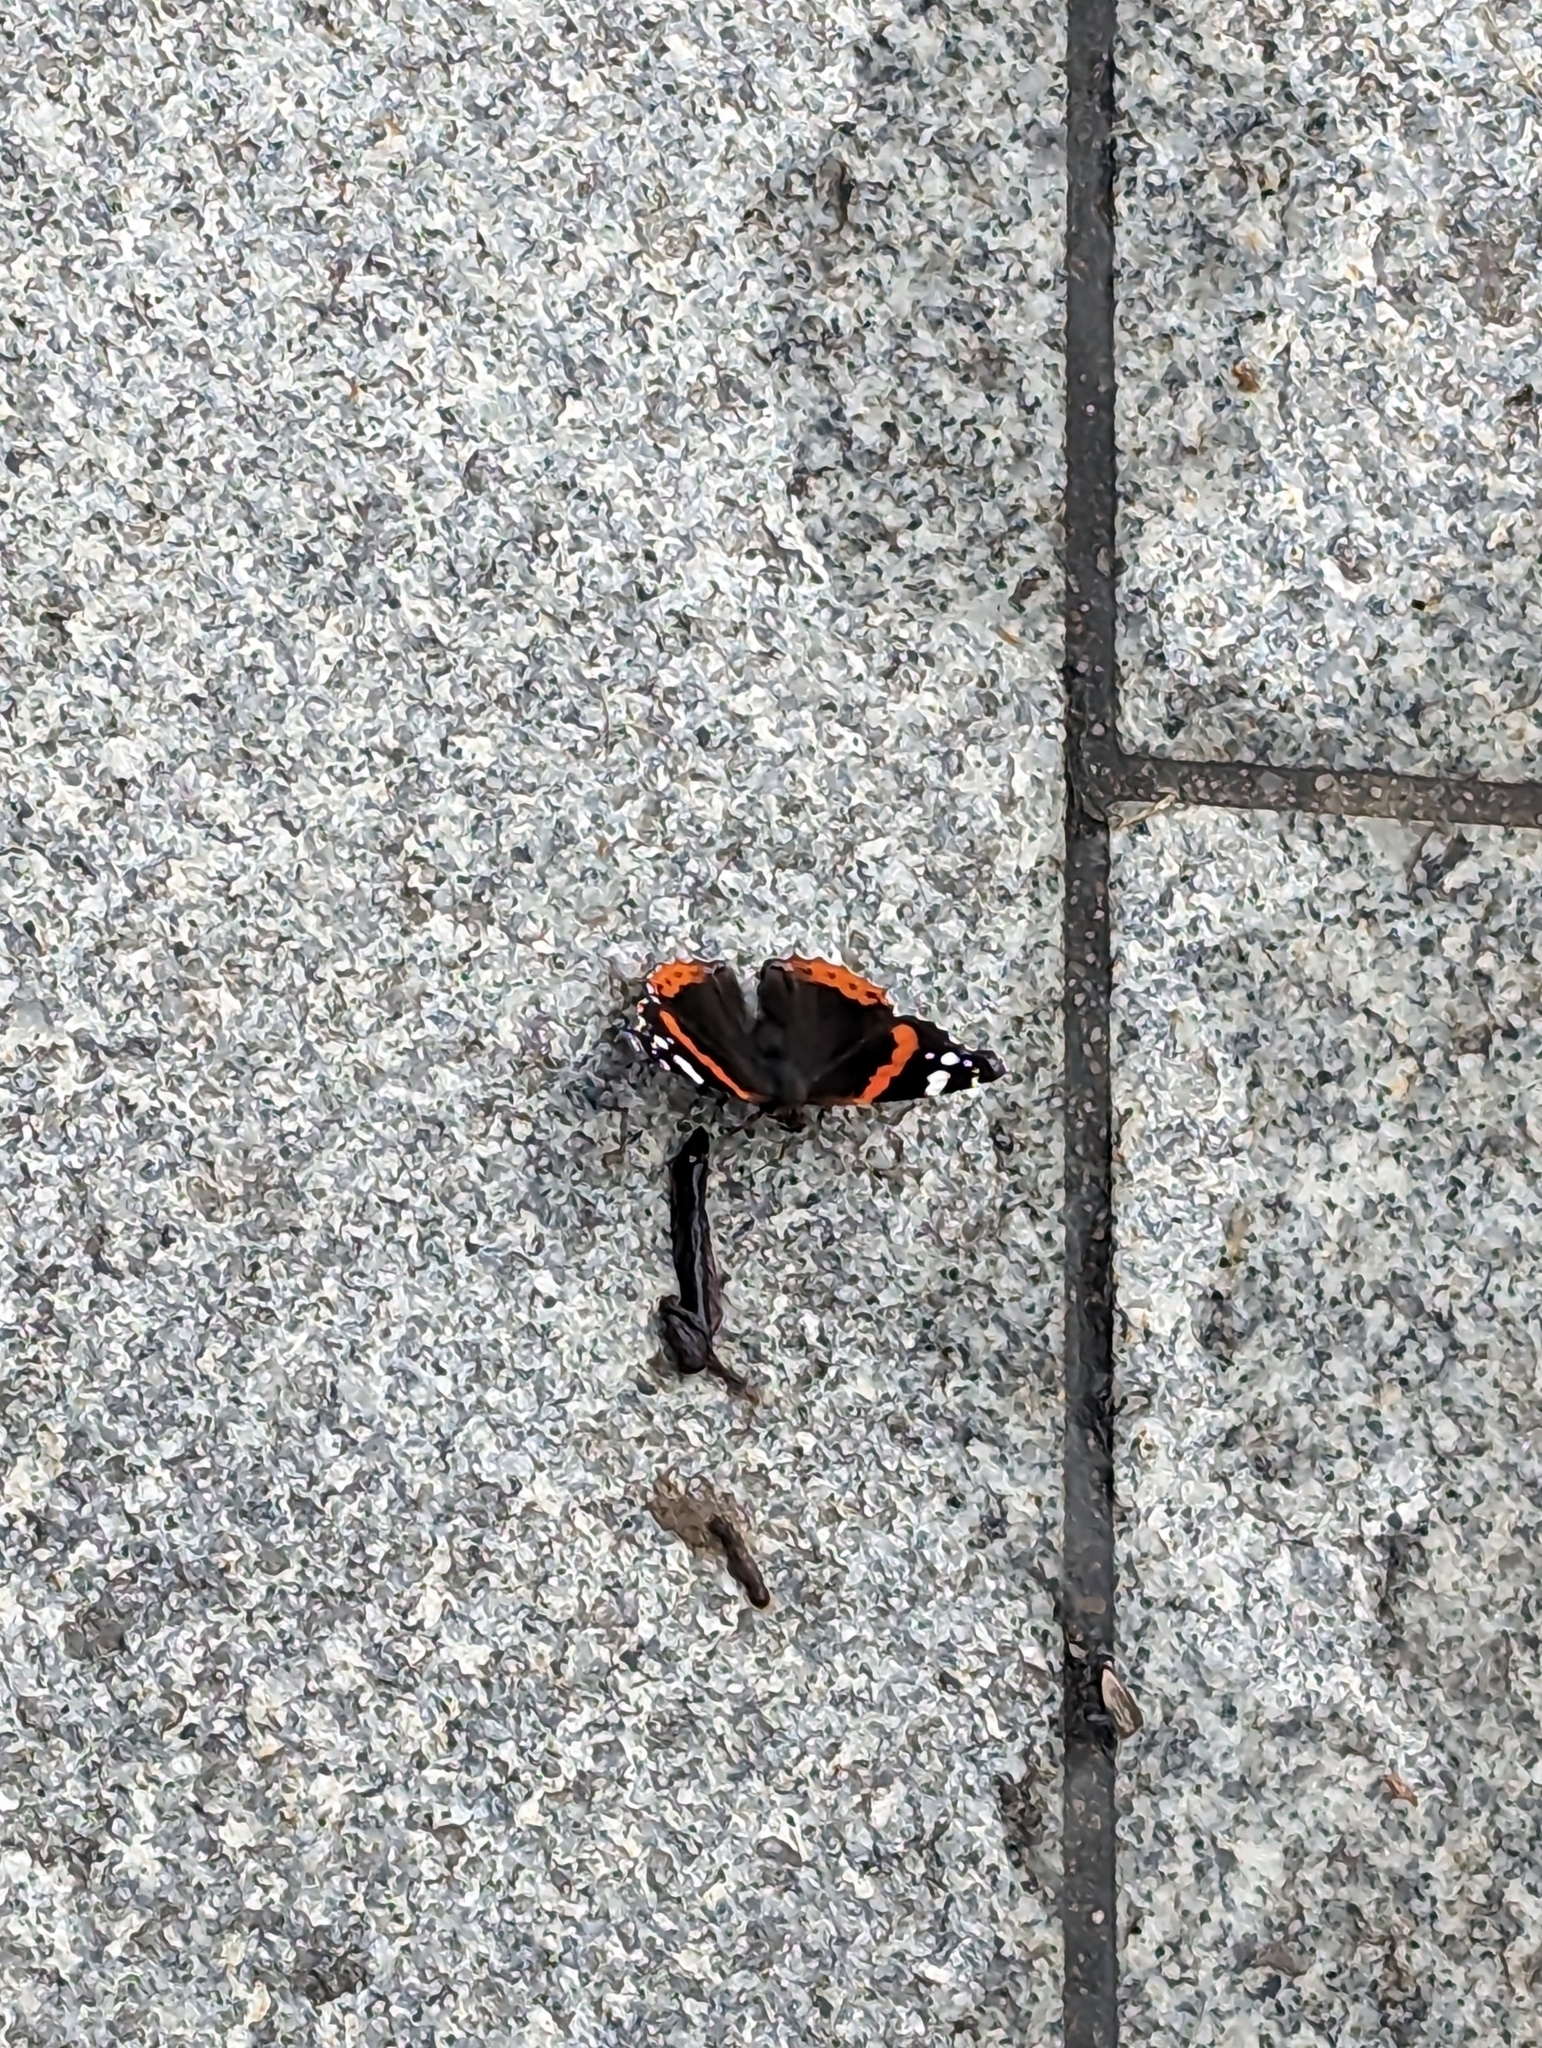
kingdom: Animalia
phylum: Arthropoda
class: Insecta
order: Lepidoptera
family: Nymphalidae
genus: Vanessa
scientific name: Vanessa atalanta
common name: Red admiral
